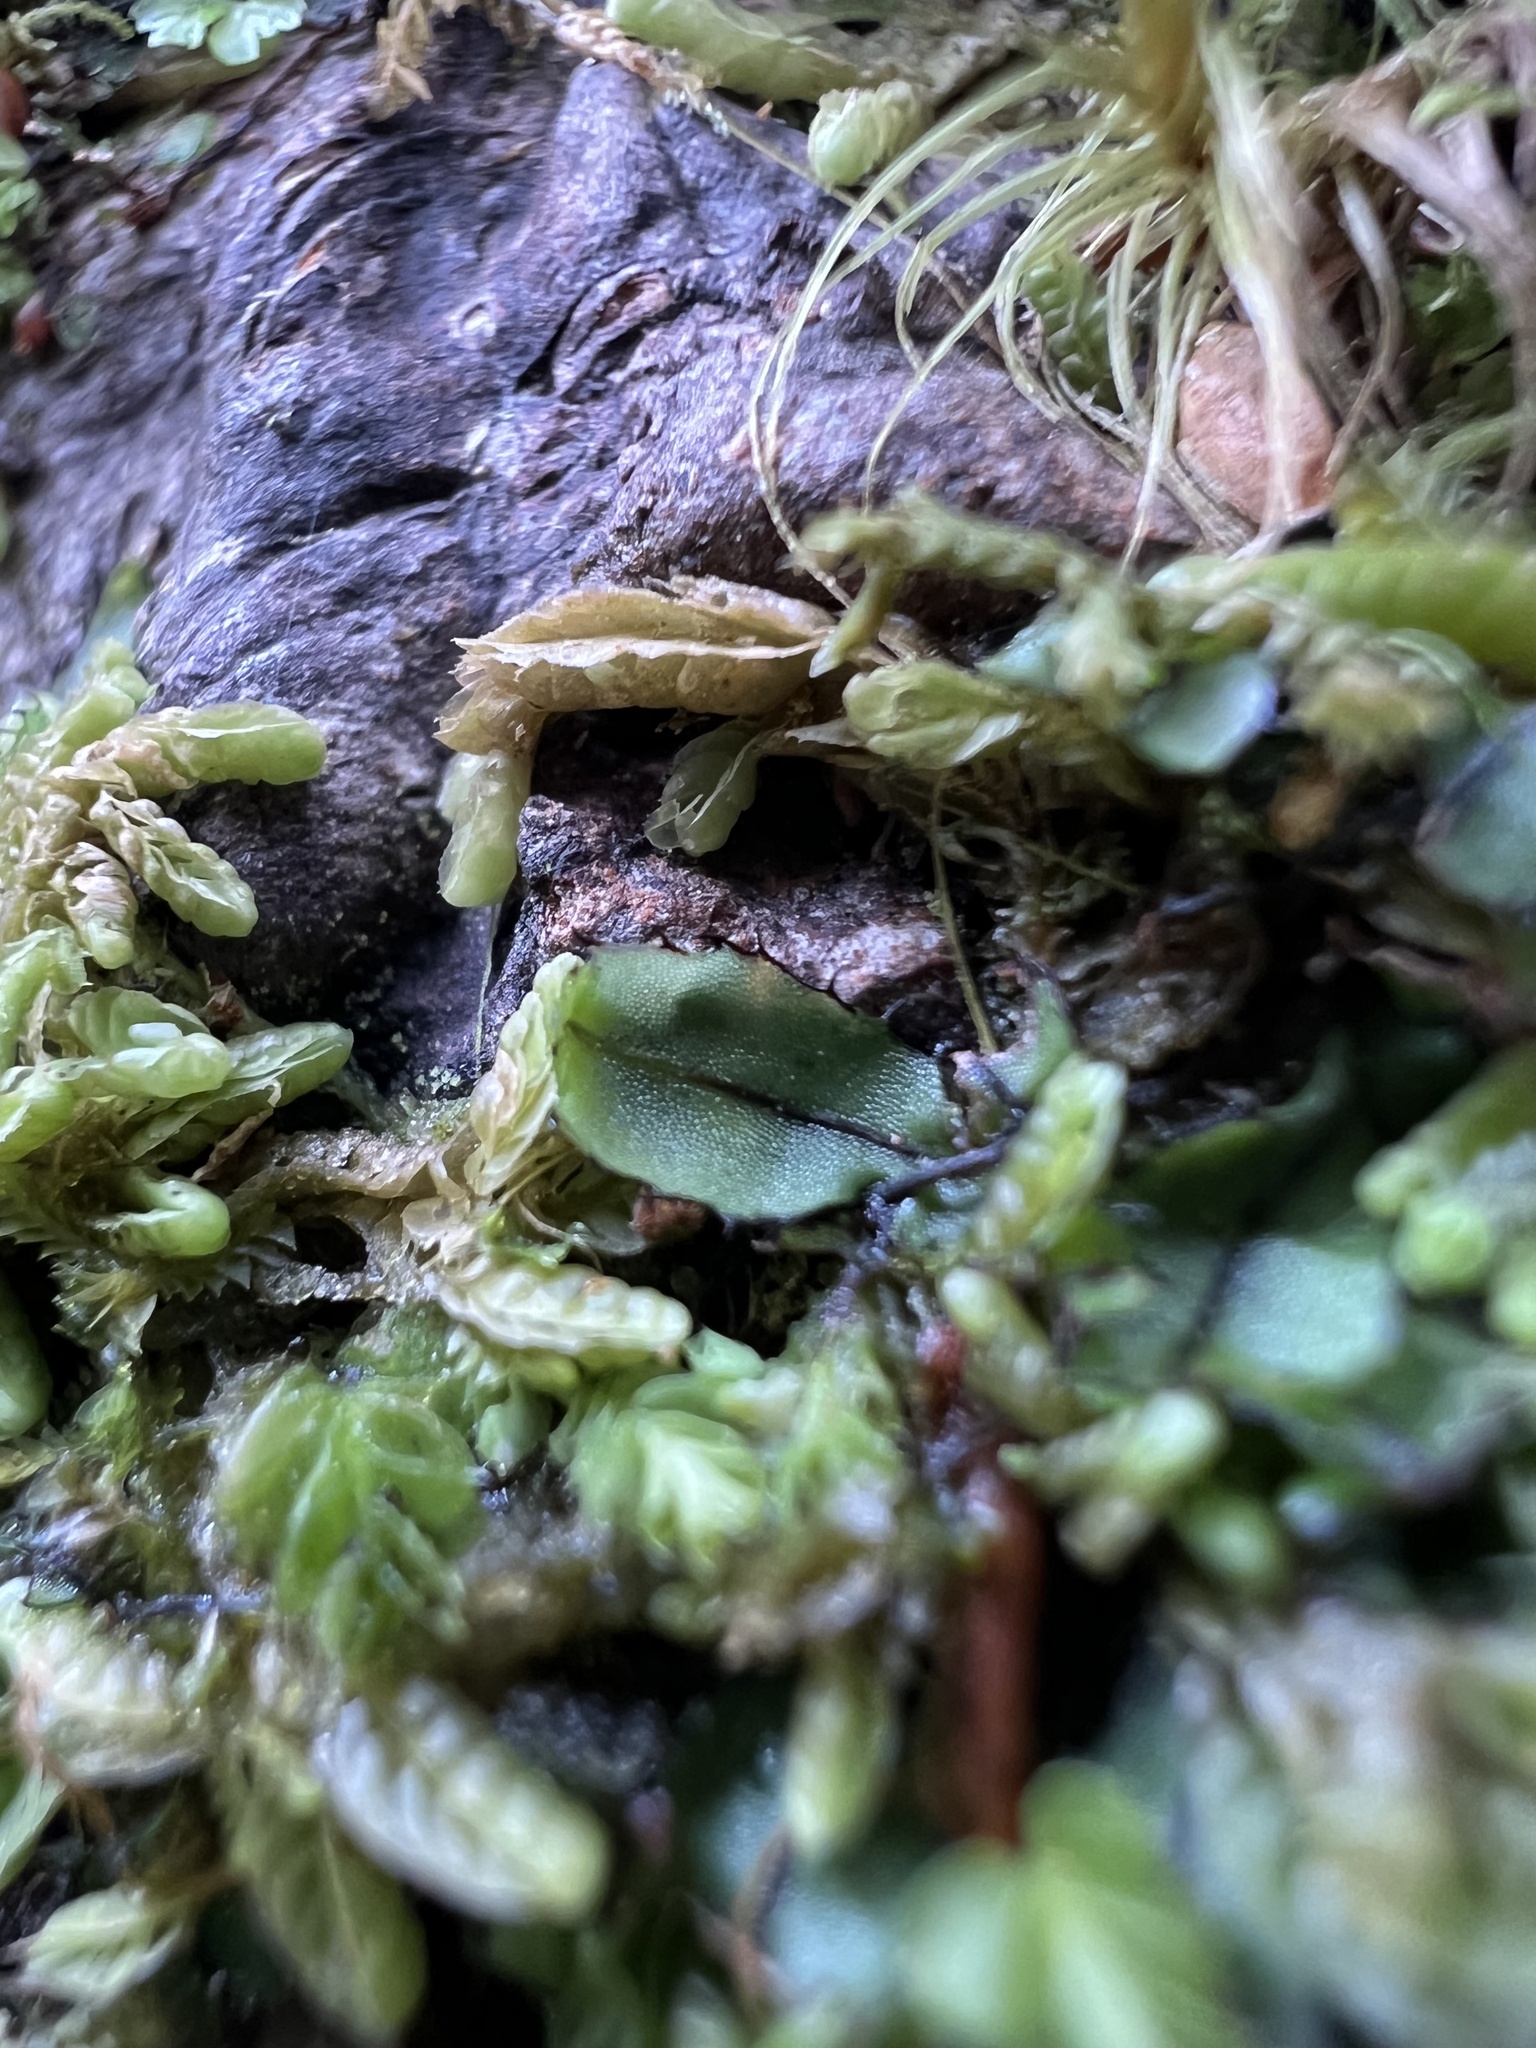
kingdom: Plantae
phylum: Tracheophyta
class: Polypodiopsida
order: Hymenophyllales
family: Hymenophyllaceae
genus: Hymenophyllum
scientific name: Hymenophyllum armstrongii
